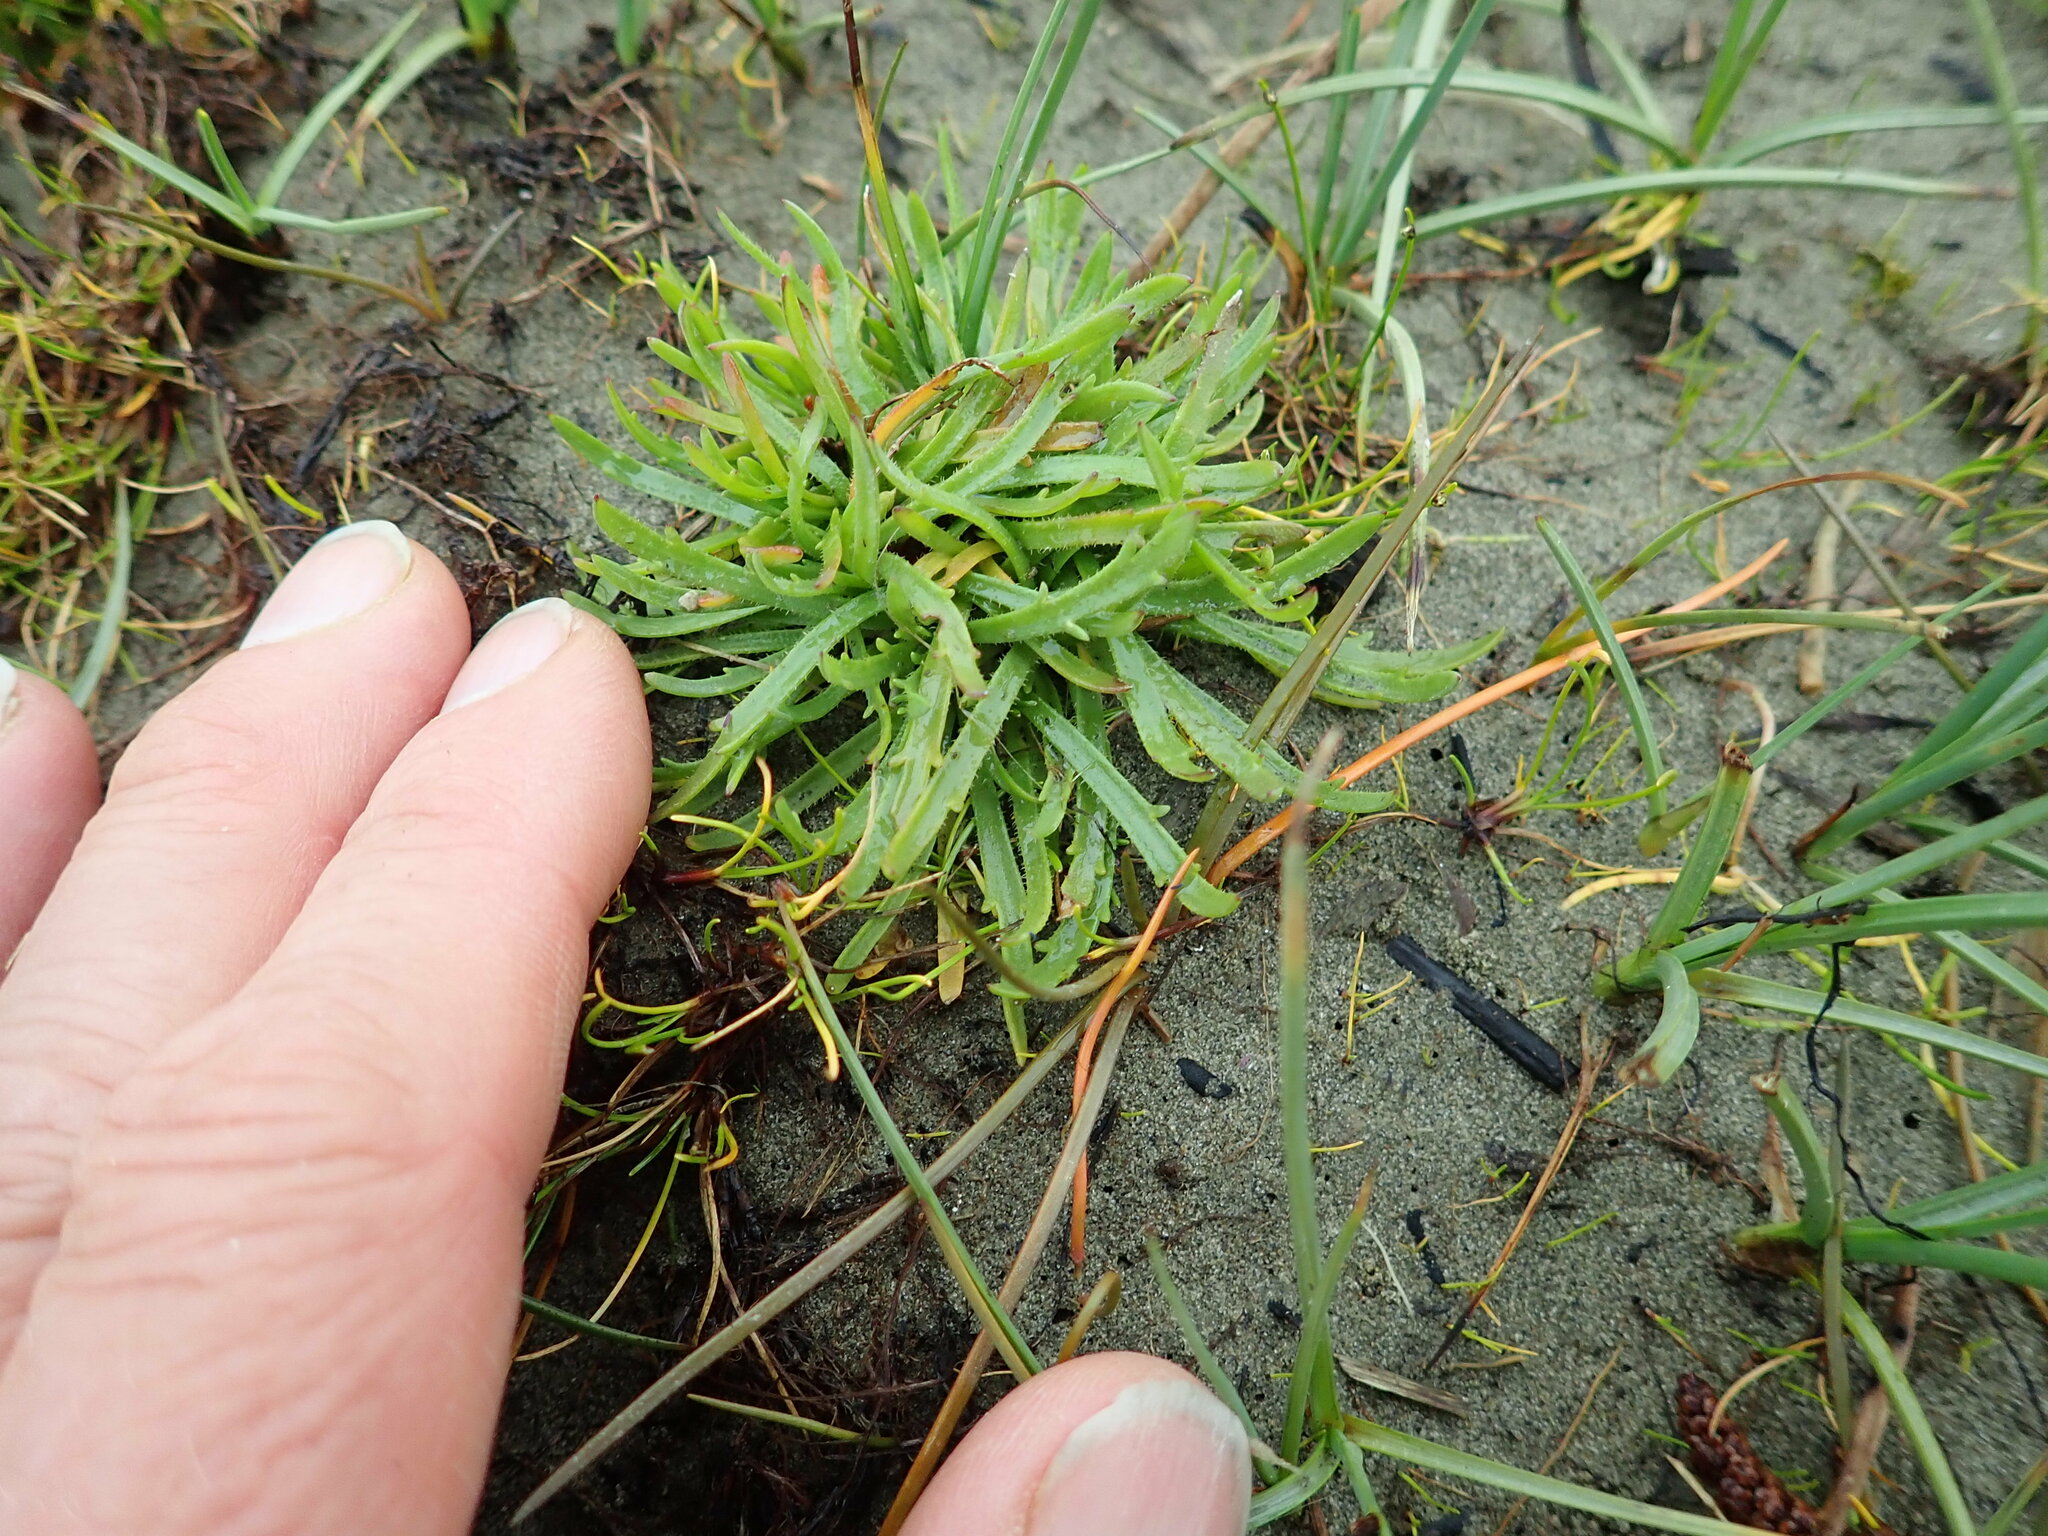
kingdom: Plantae
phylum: Tracheophyta
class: Magnoliopsida
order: Lamiales
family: Plantaginaceae
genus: Plantago
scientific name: Plantago coronopus
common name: Buck's-horn plantain
